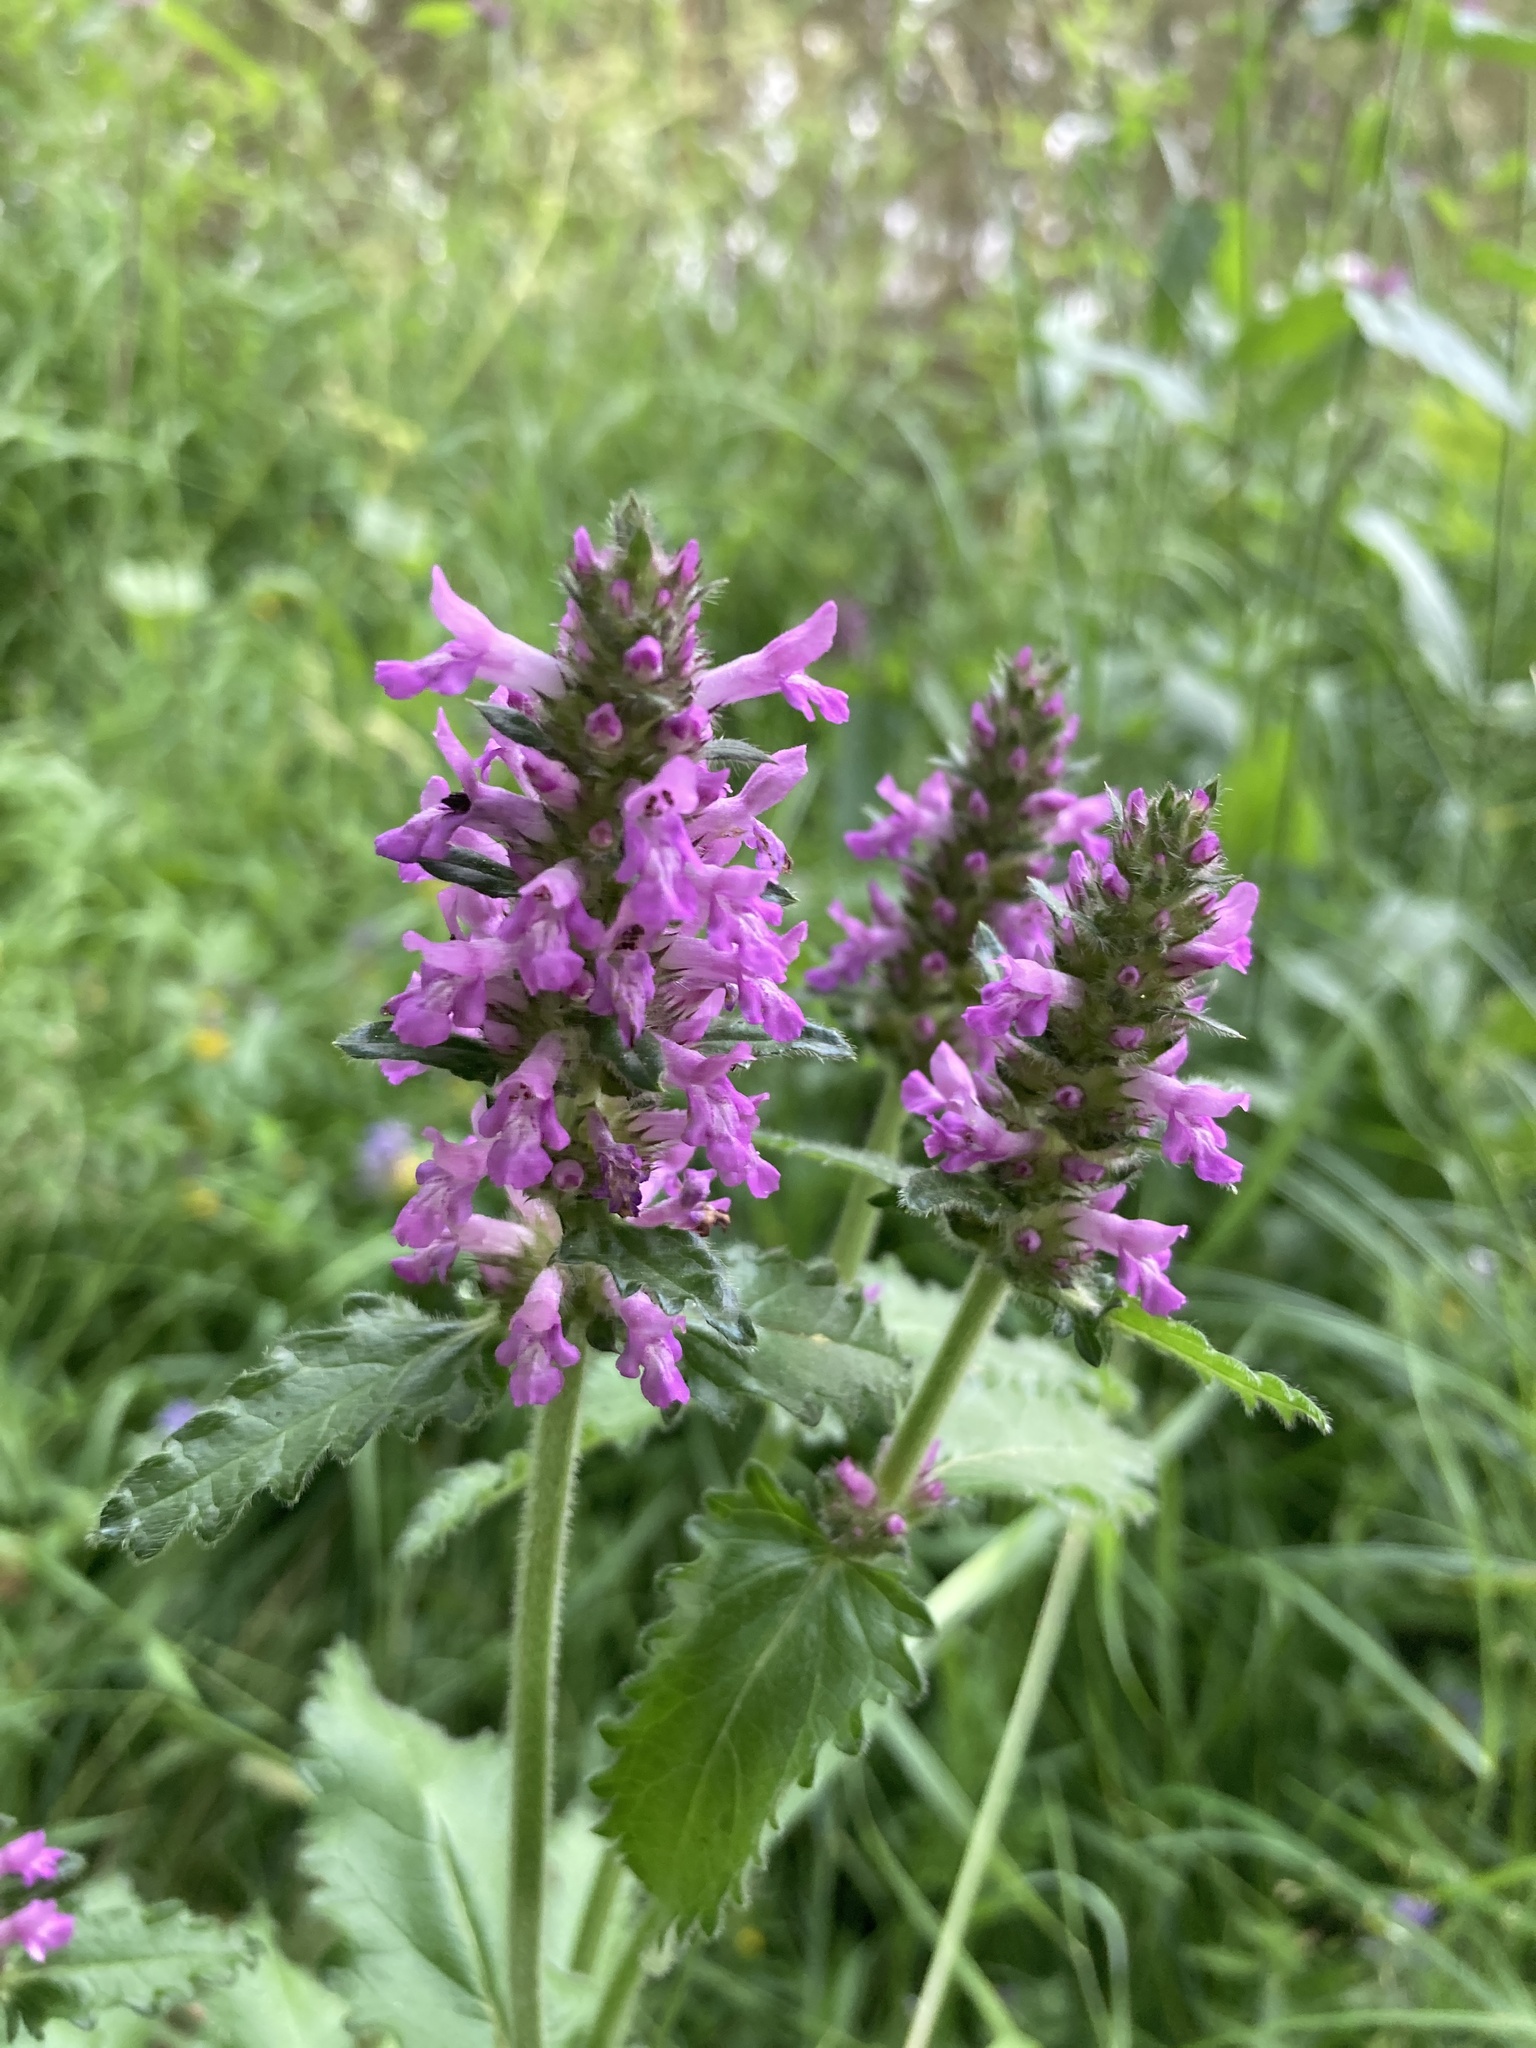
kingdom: Plantae
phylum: Tracheophyta
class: Magnoliopsida
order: Lamiales
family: Lamiaceae
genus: Betonica
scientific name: Betonica officinalis
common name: Bishop's-wort
